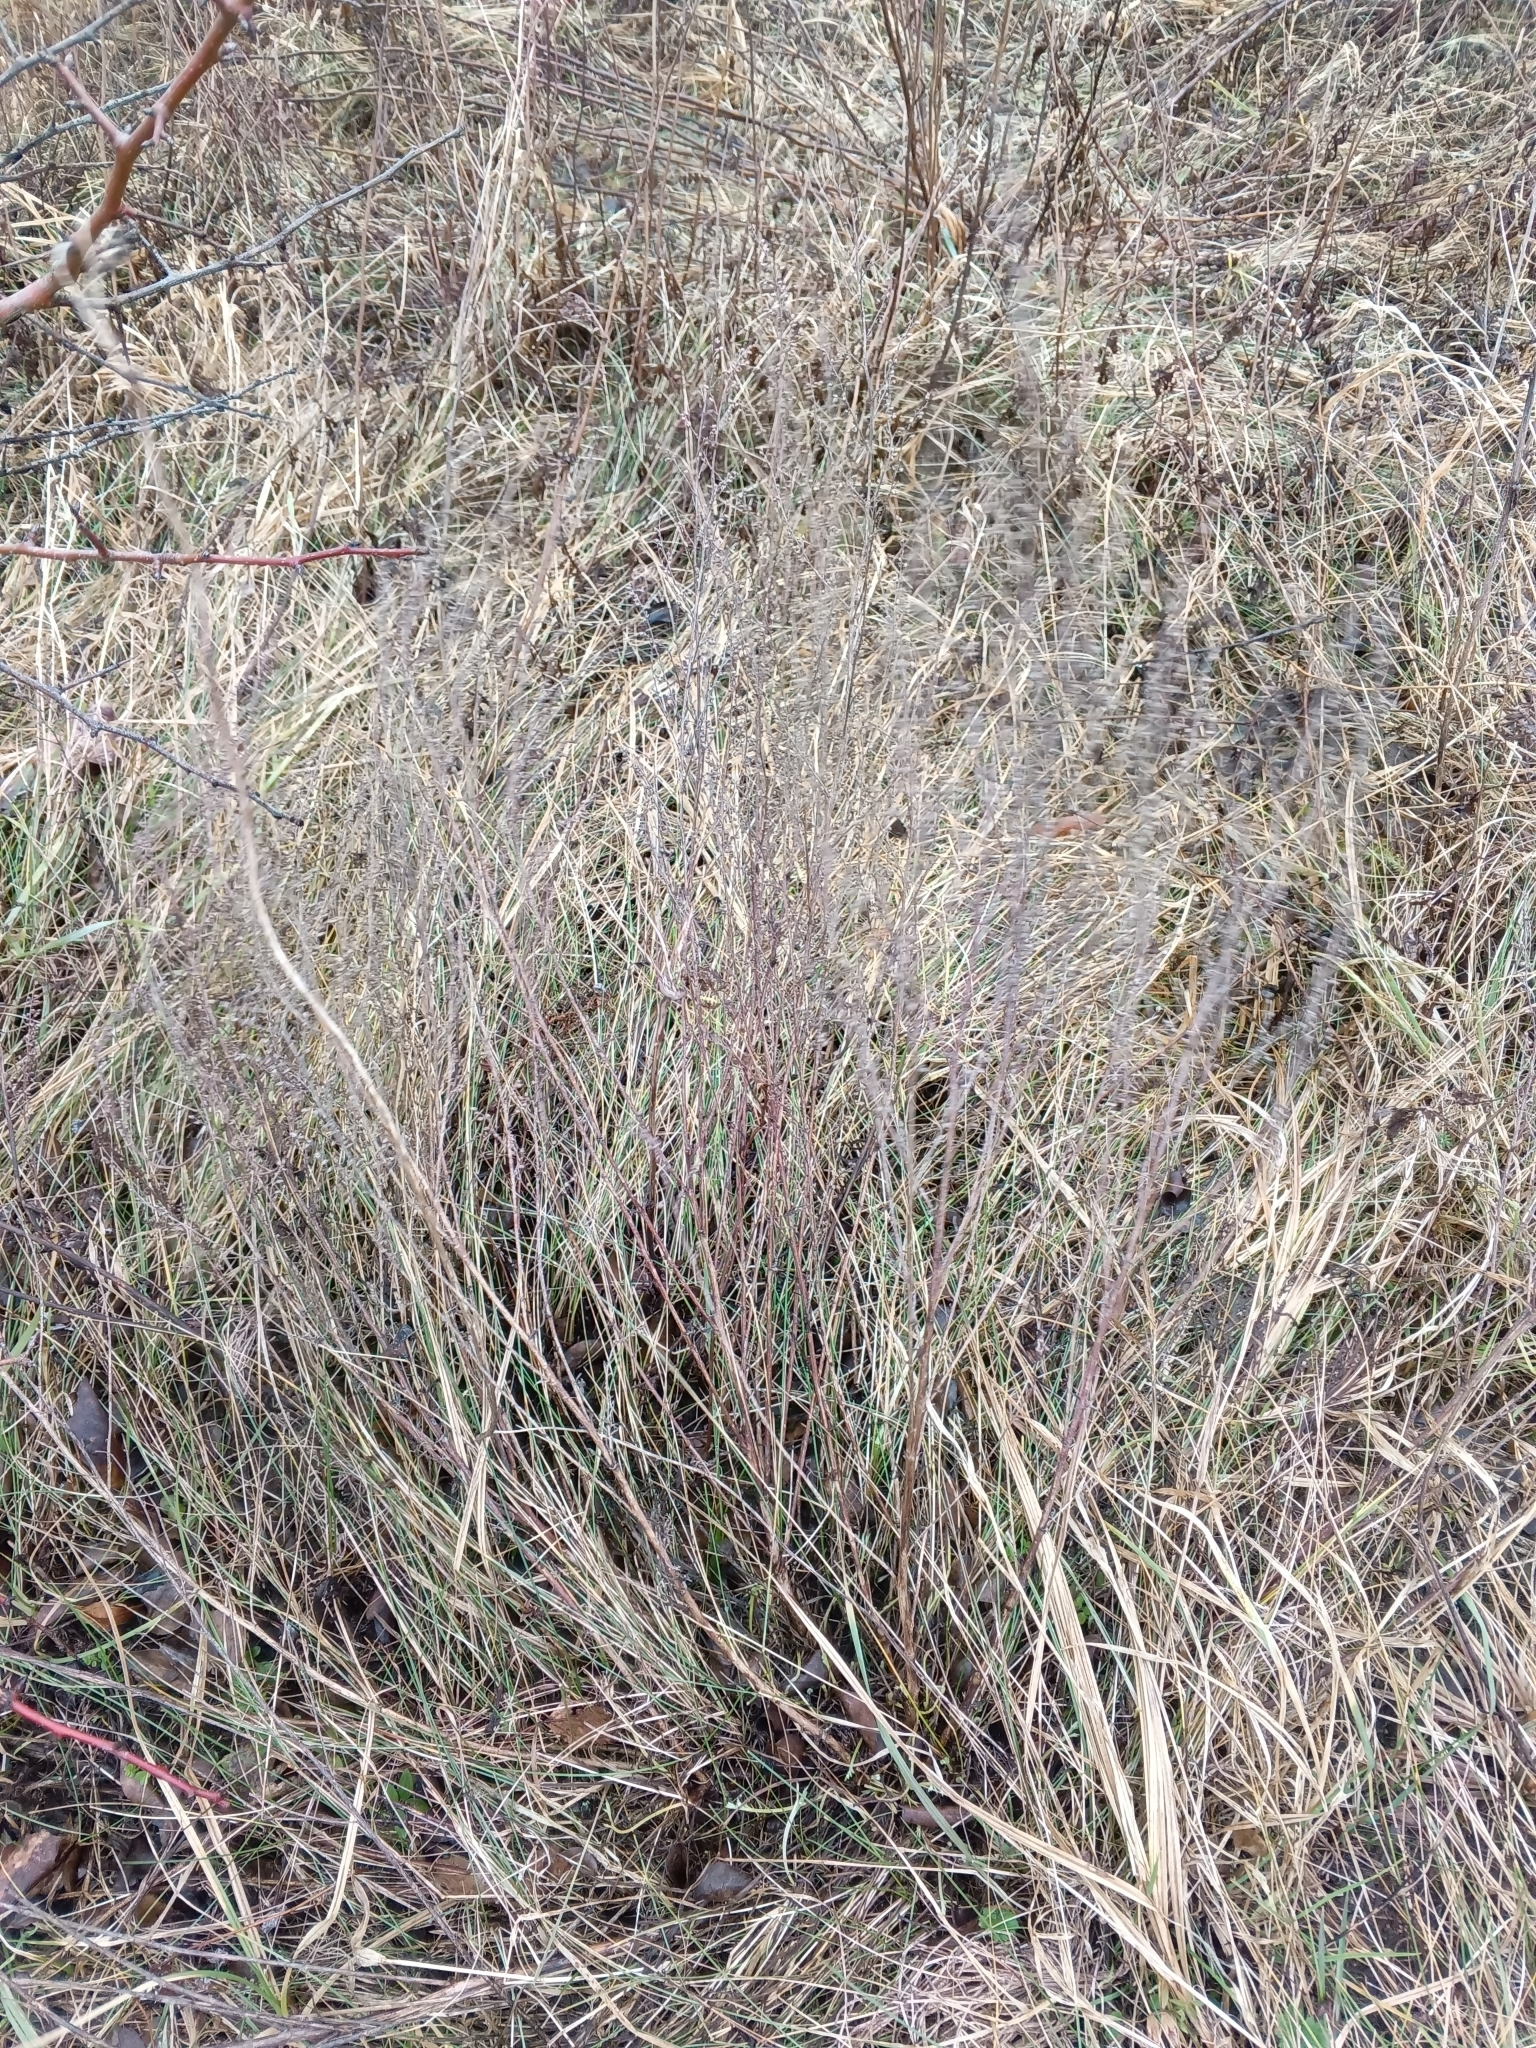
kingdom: Plantae
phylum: Tracheophyta
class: Magnoliopsida
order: Asterales
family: Asteraceae
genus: Artemisia
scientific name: Artemisia campestris
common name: Field wormwood
